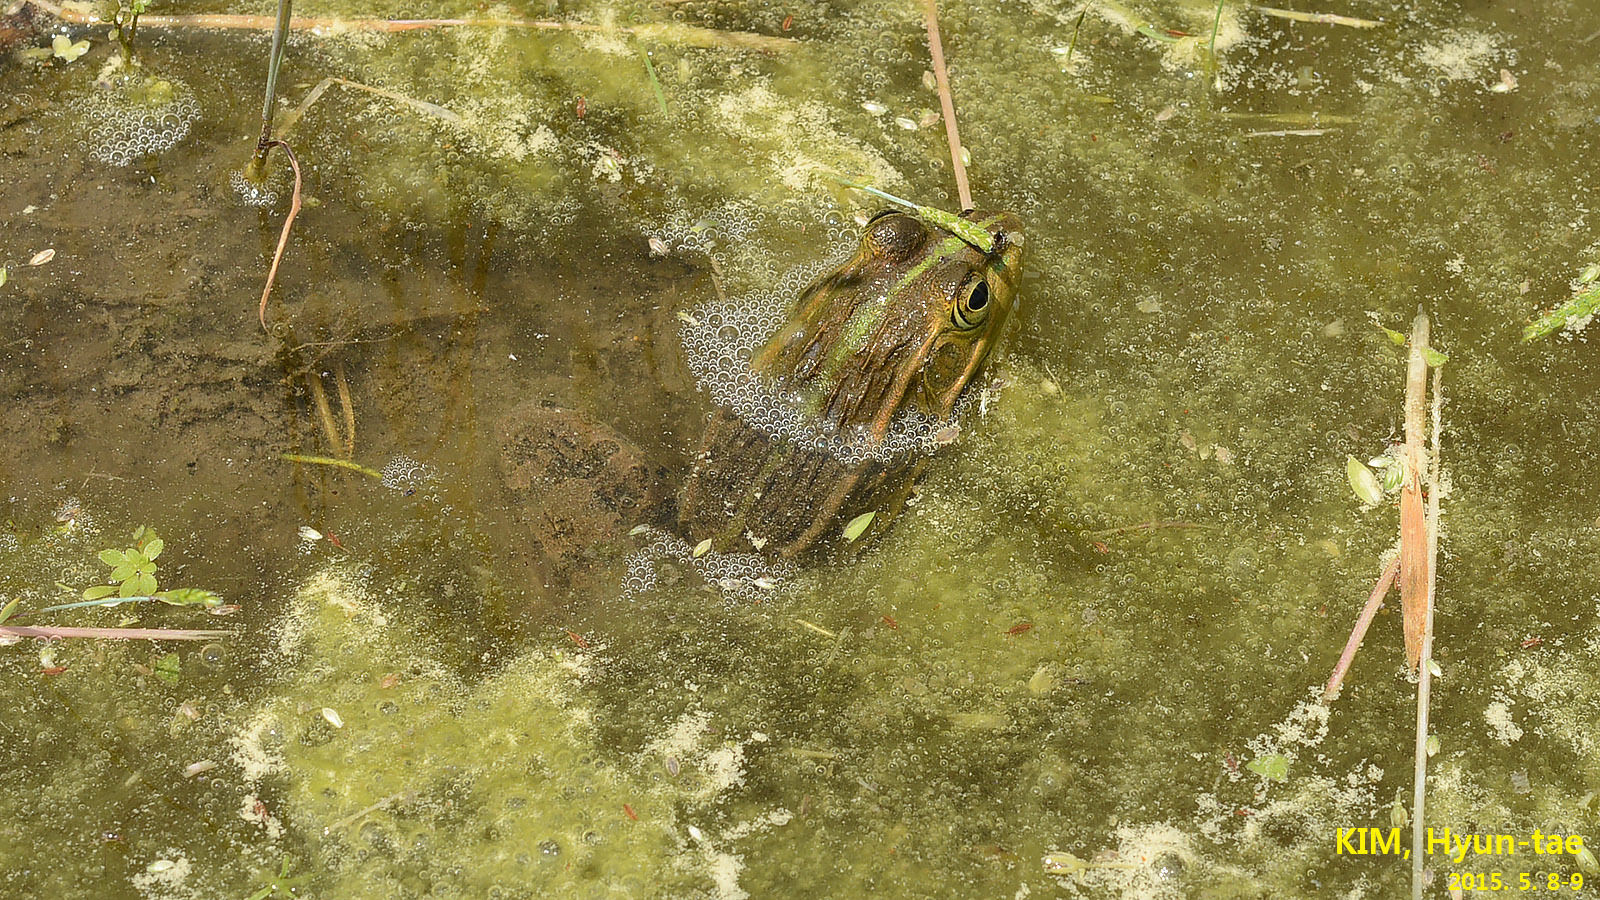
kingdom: Animalia
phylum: Chordata
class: Amphibia
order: Anura
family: Ranidae
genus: Pelophylax
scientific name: Pelophylax nigromaculatus
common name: Black-spotted pond frog
